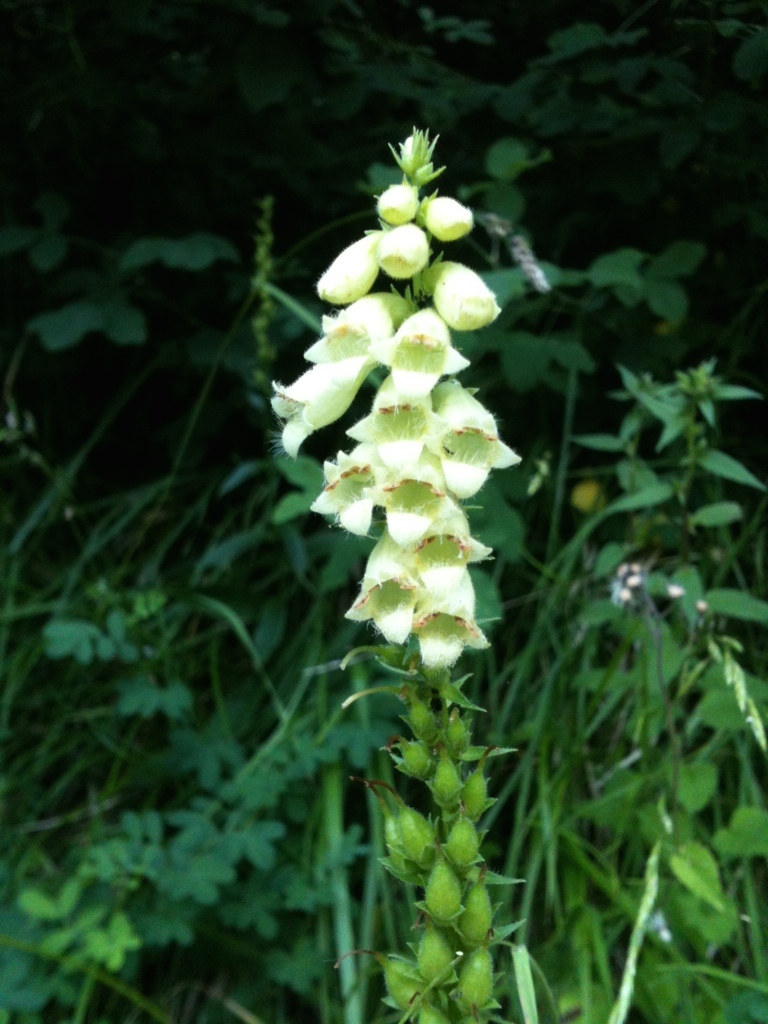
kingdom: Plantae
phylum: Tracheophyta
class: Magnoliopsida
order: Lamiales
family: Plantaginaceae
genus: Digitalis
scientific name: Digitalis lutea
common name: Straw foxglove
